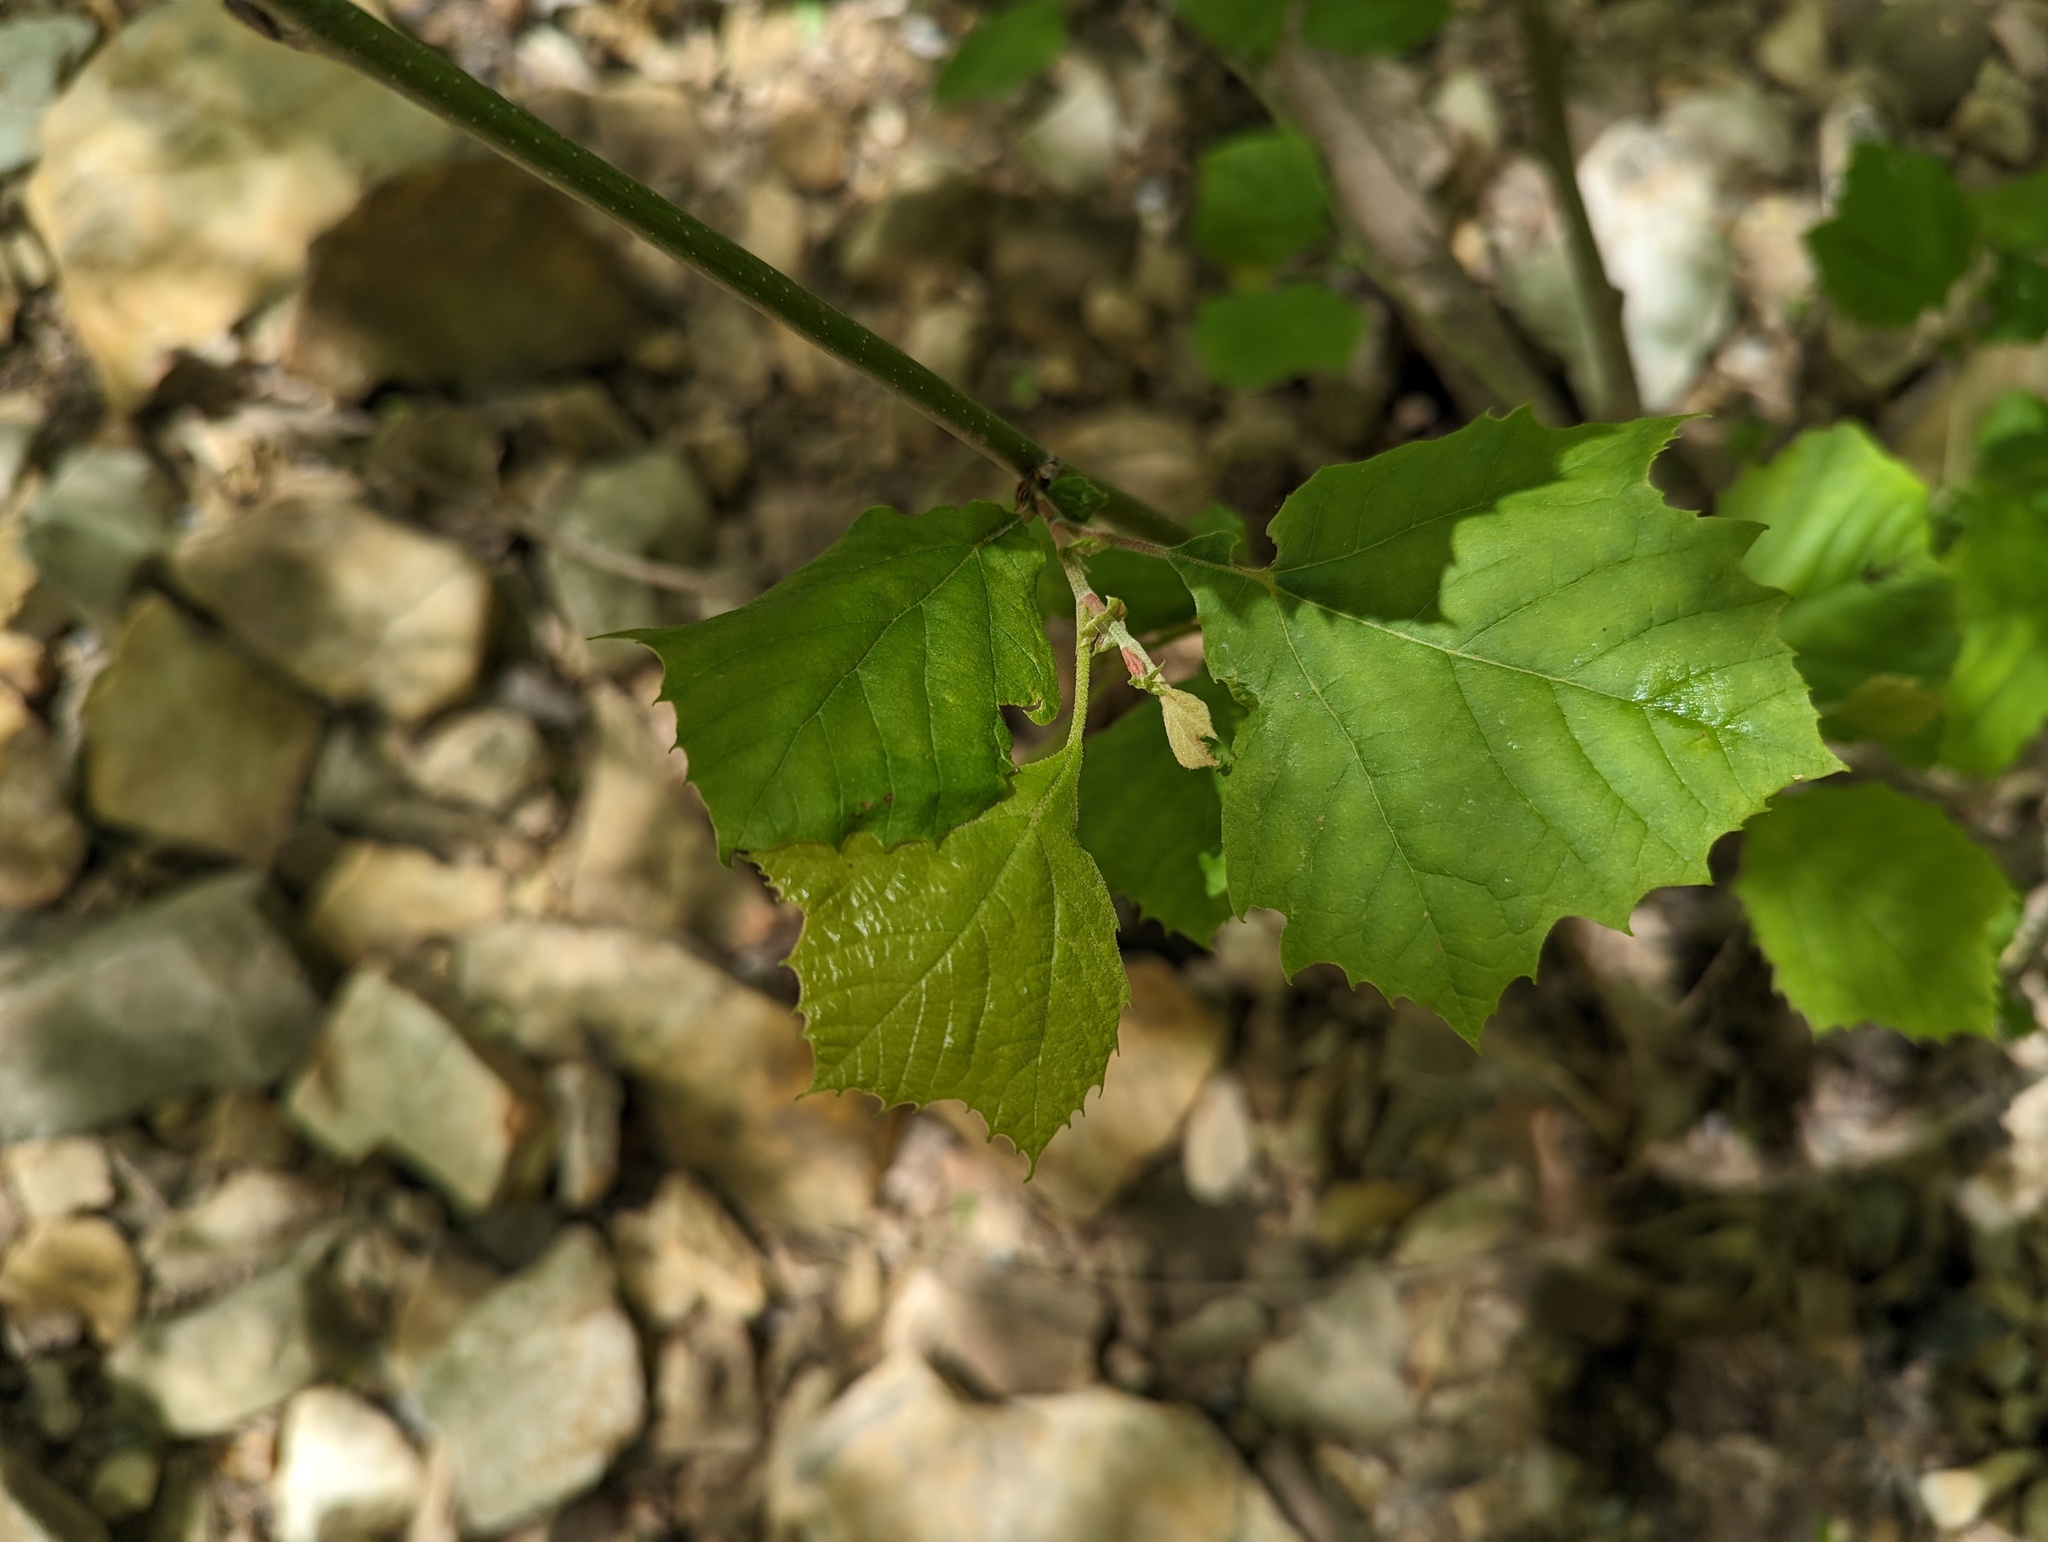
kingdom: Plantae
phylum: Tracheophyta
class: Magnoliopsida
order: Proteales
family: Platanaceae
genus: Platanus
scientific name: Platanus occidentalis
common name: American sycamore
